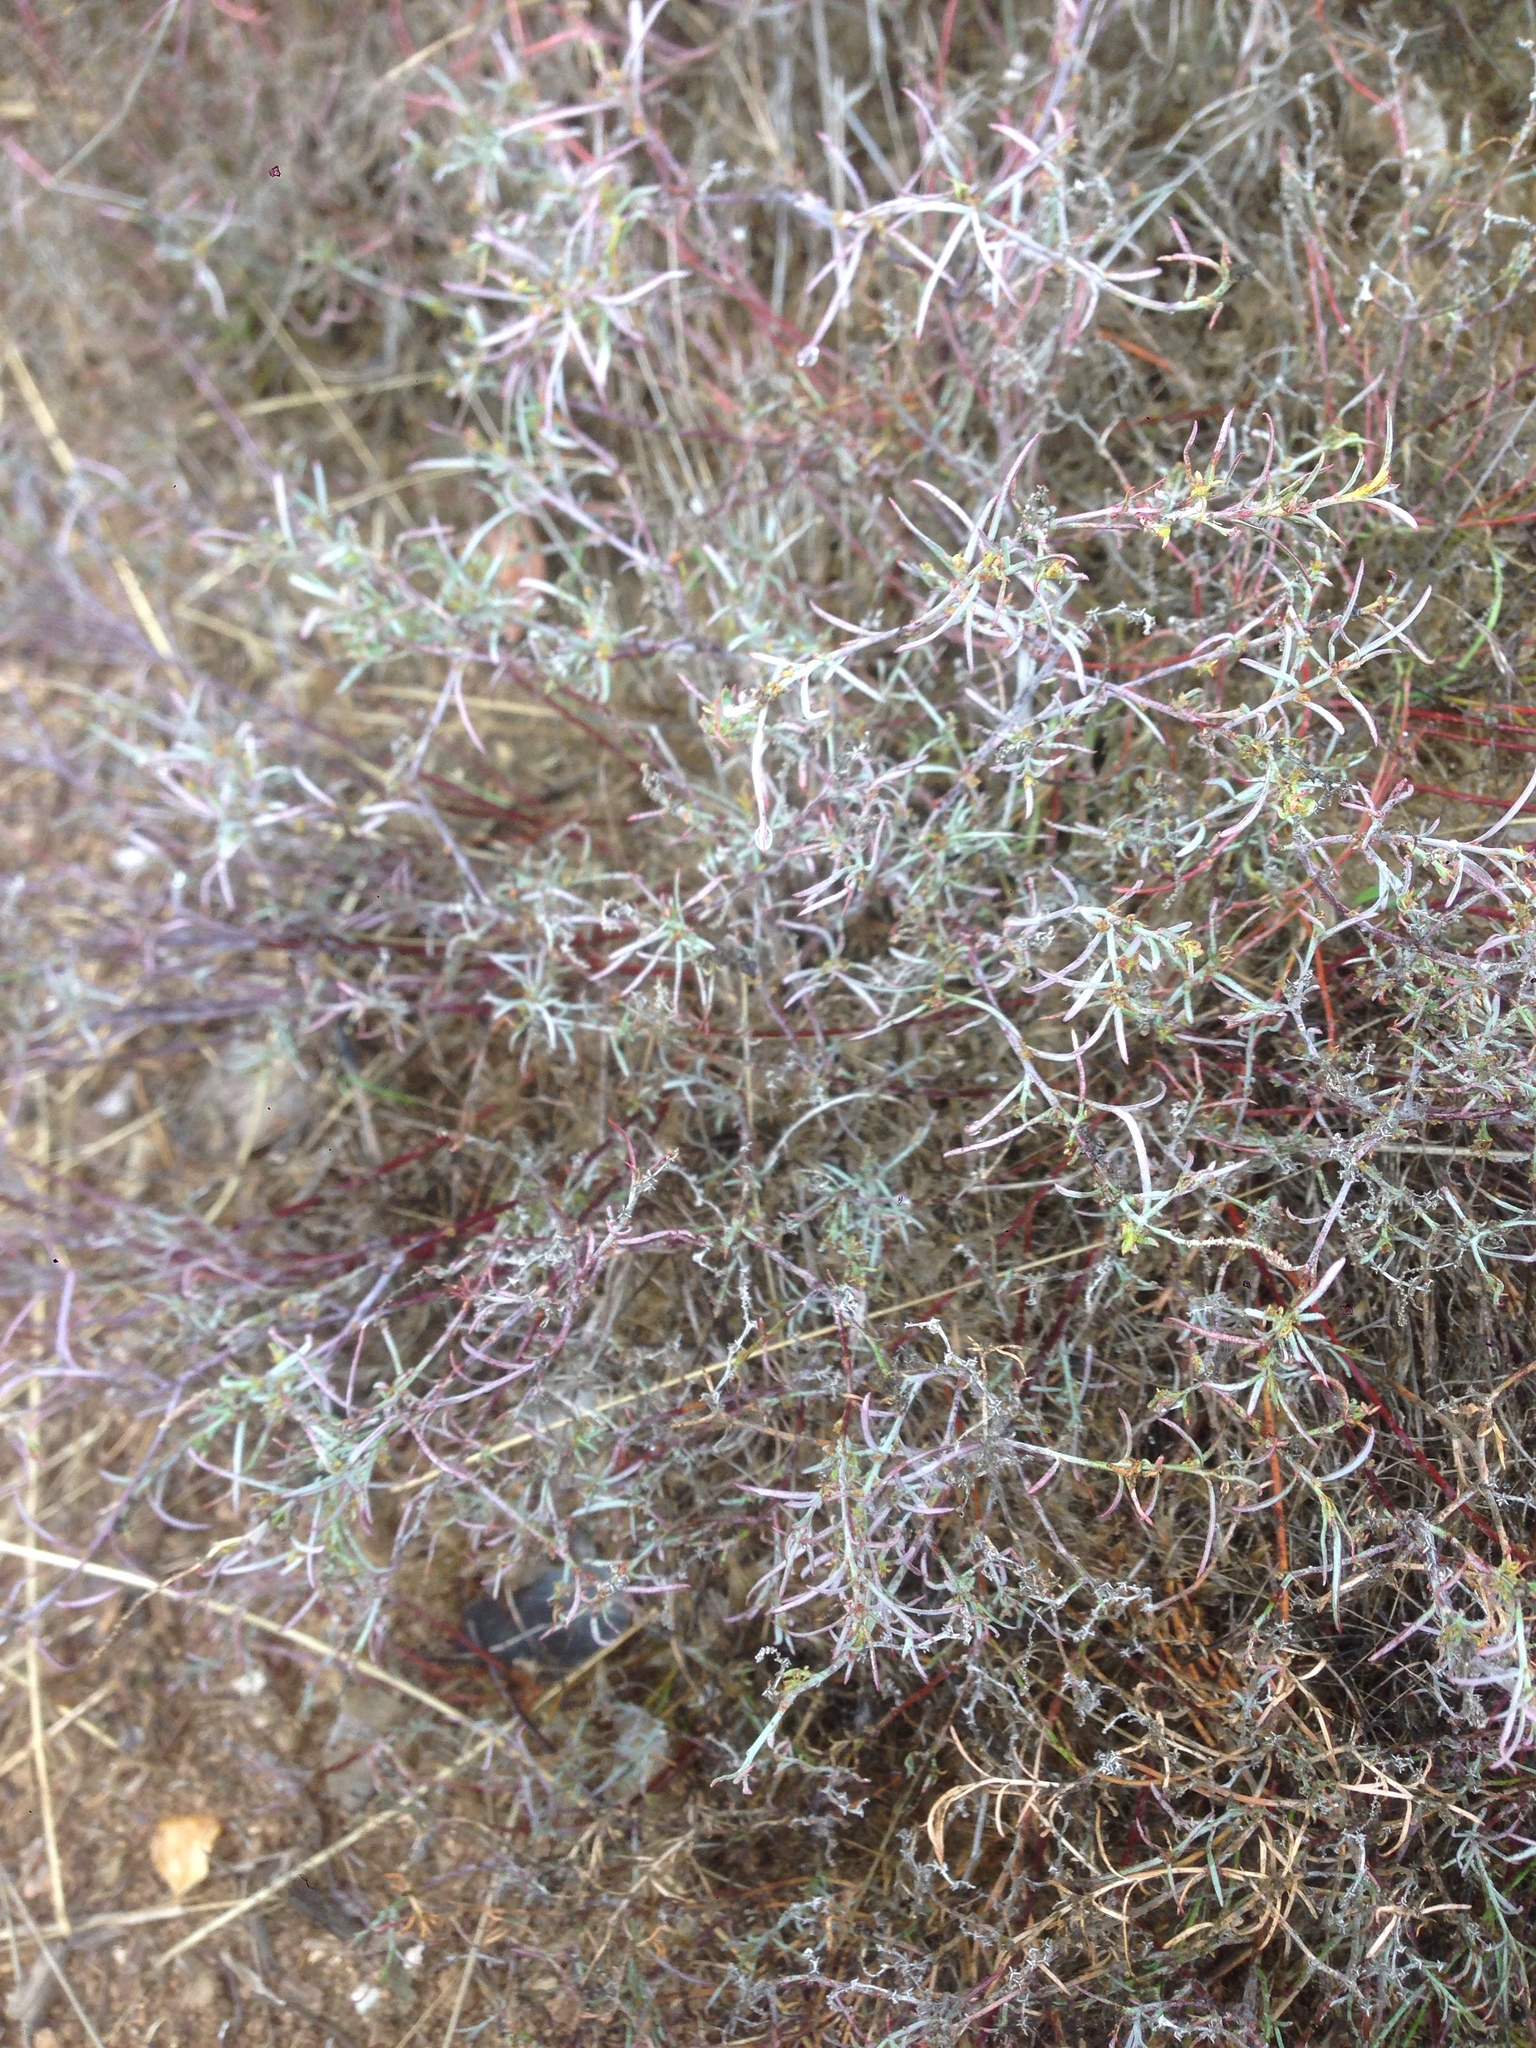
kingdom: Plantae
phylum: Tracheophyta
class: Magnoliopsida
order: Malpighiales
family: Euphorbiaceae
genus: Stillingia
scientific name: Stillingia linearifolia
